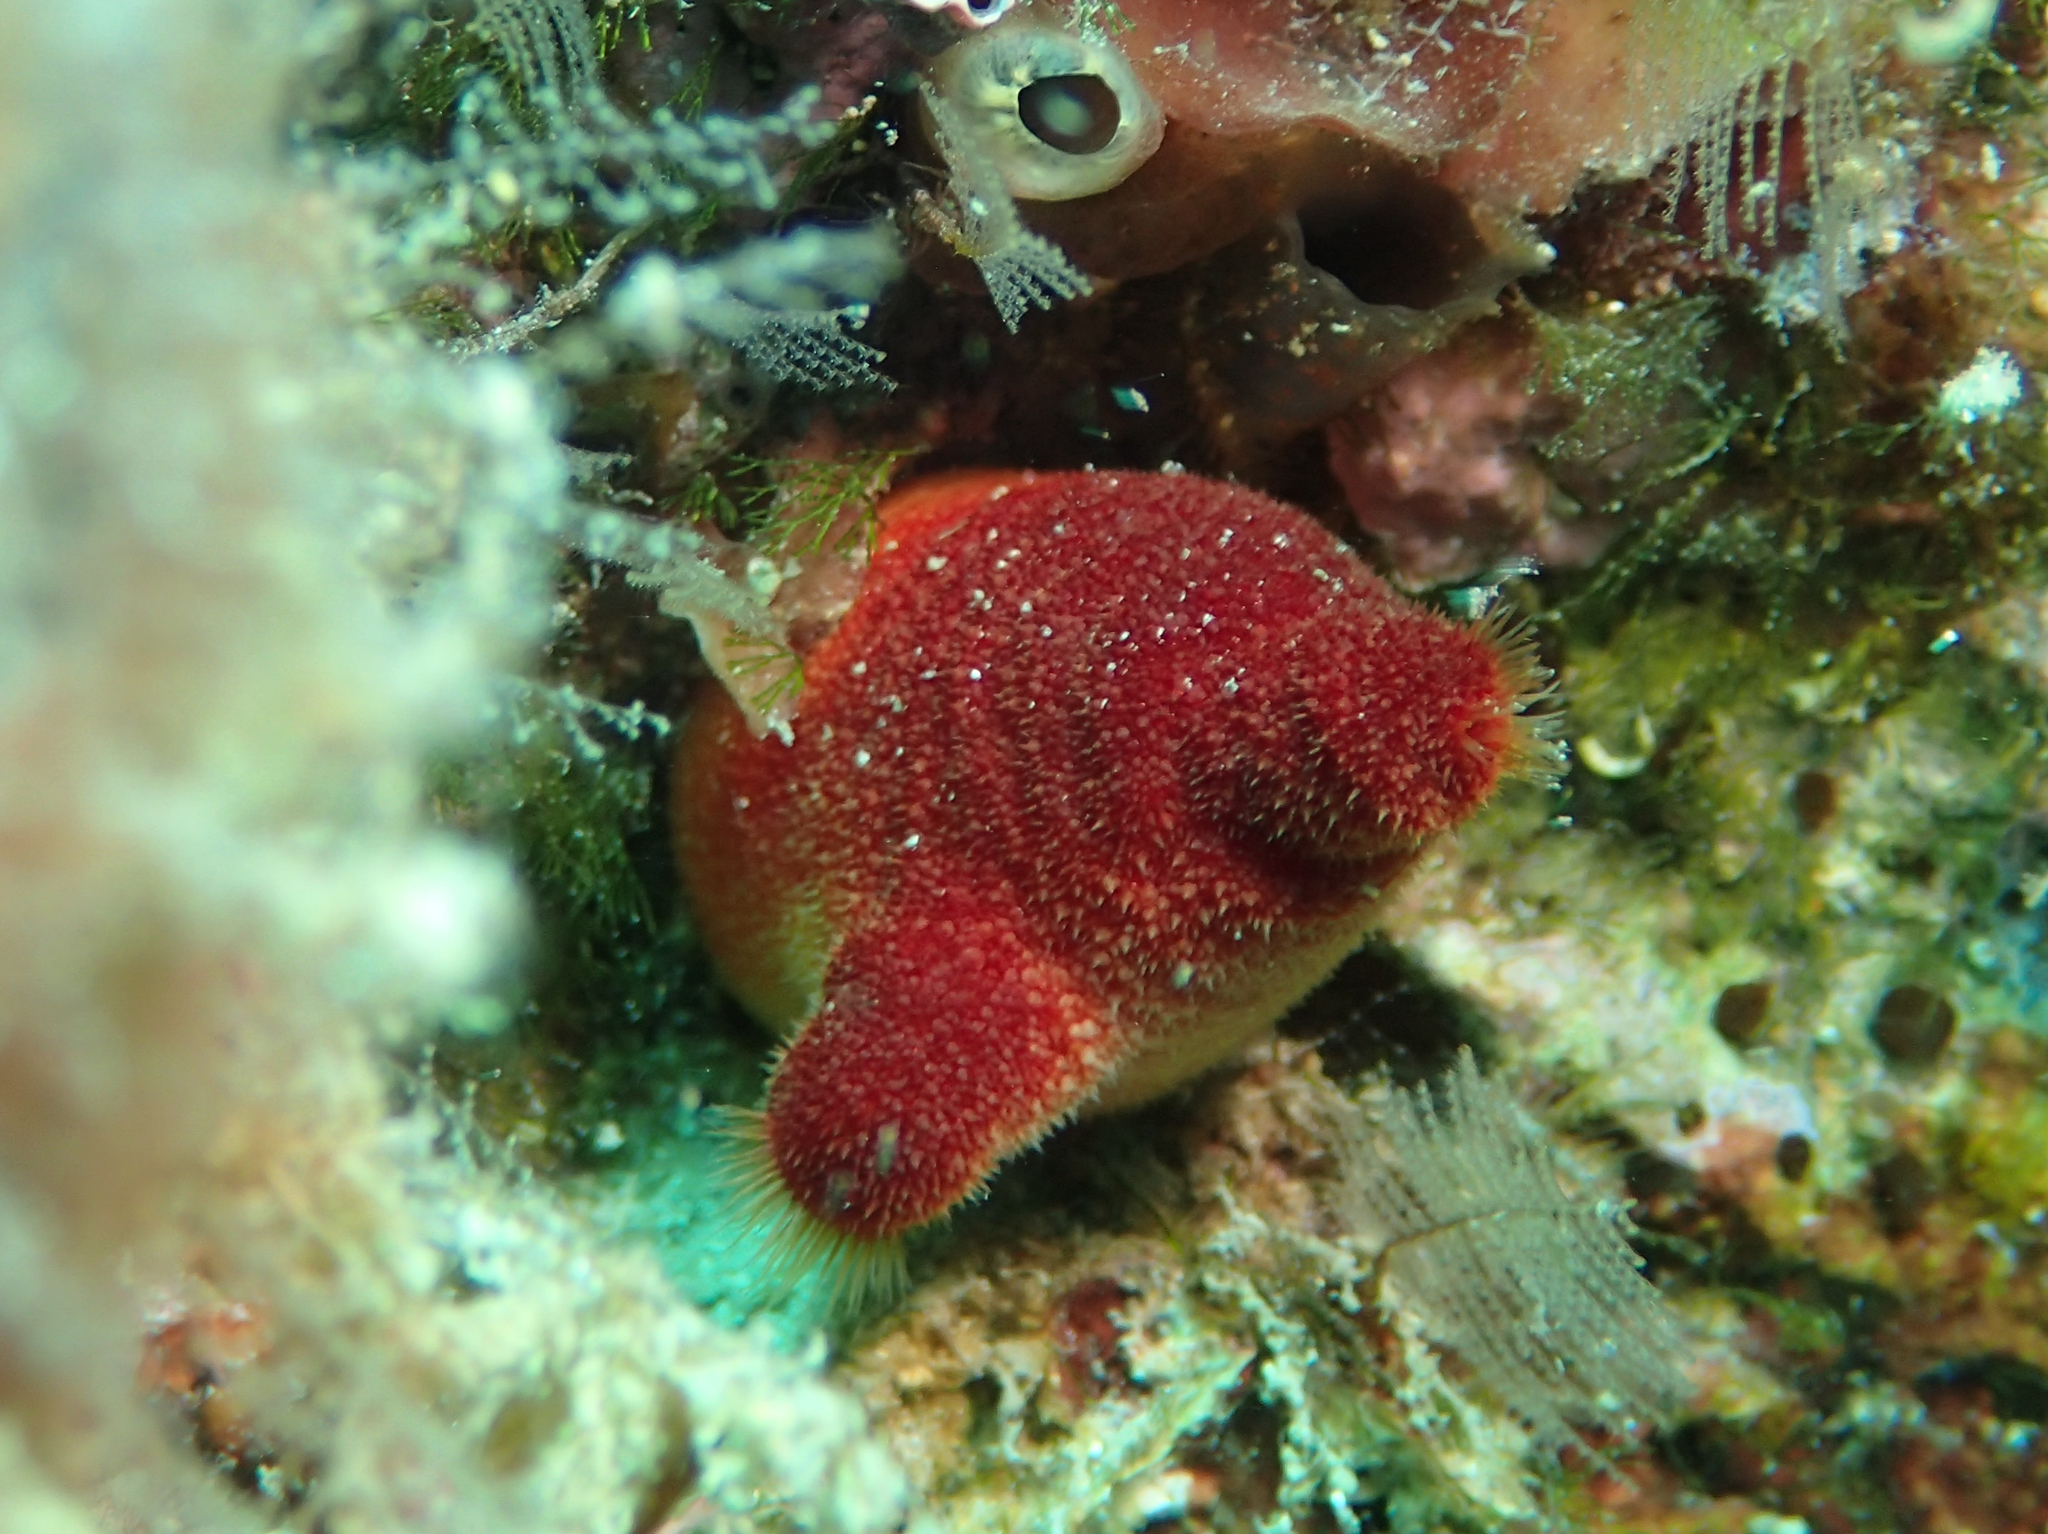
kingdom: Animalia
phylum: Chordata
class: Ascidiacea
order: Stolidobranchia
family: Pyuridae
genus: Halocynthia
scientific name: Halocynthia papillosa
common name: Red sea-squirt
